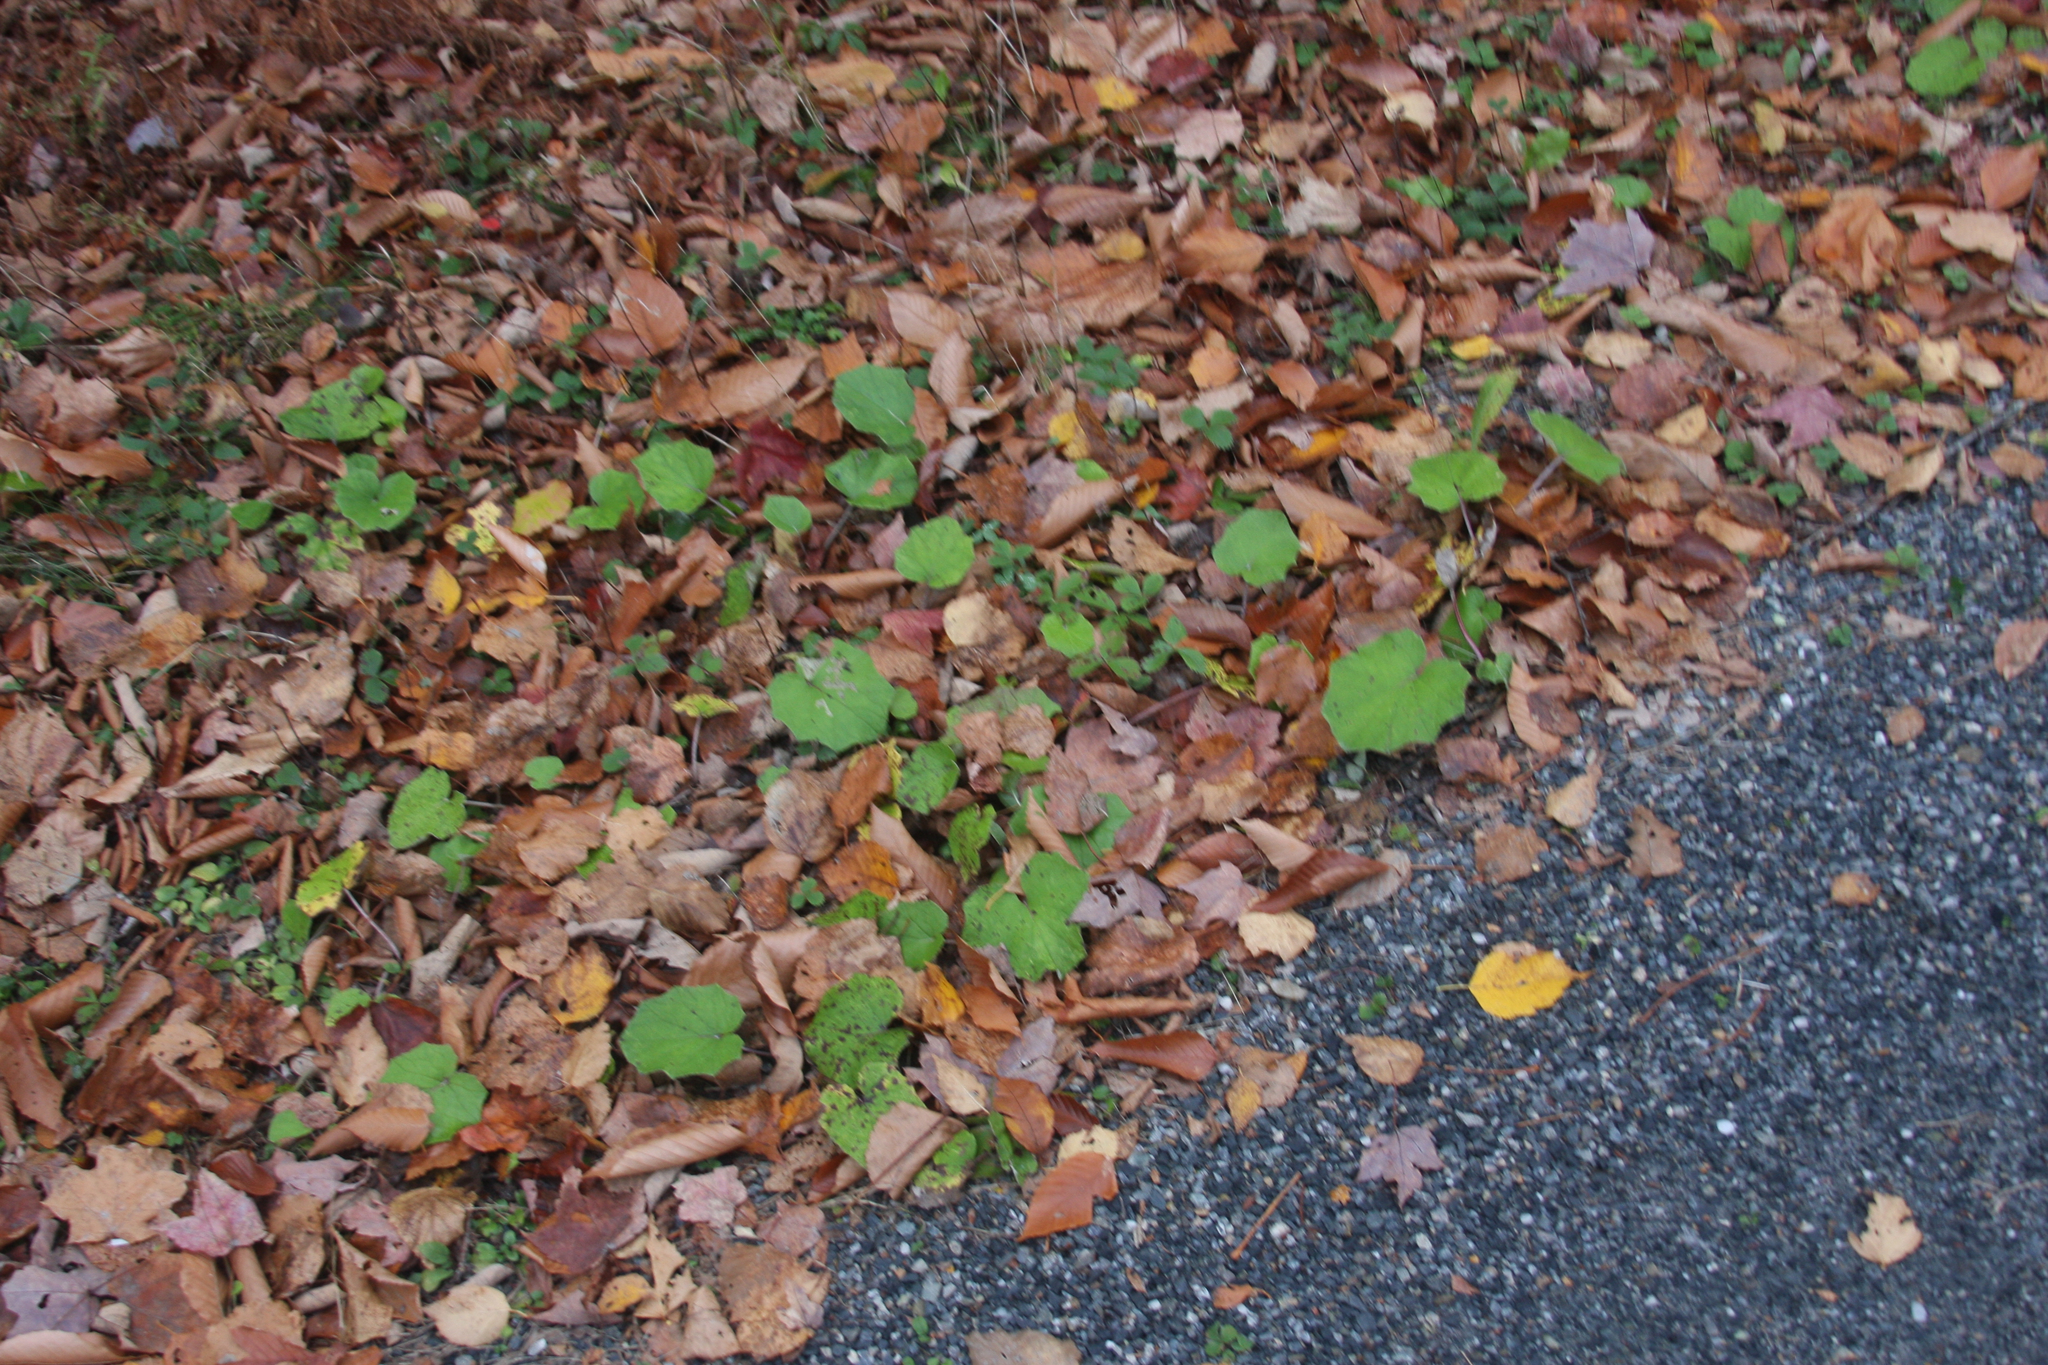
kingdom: Plantae
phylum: Tracheophyta
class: Magnoliopsida
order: Asterales
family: Asteraceae
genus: Tussilago
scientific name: Tussilago farfara
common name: Coltsfoot
